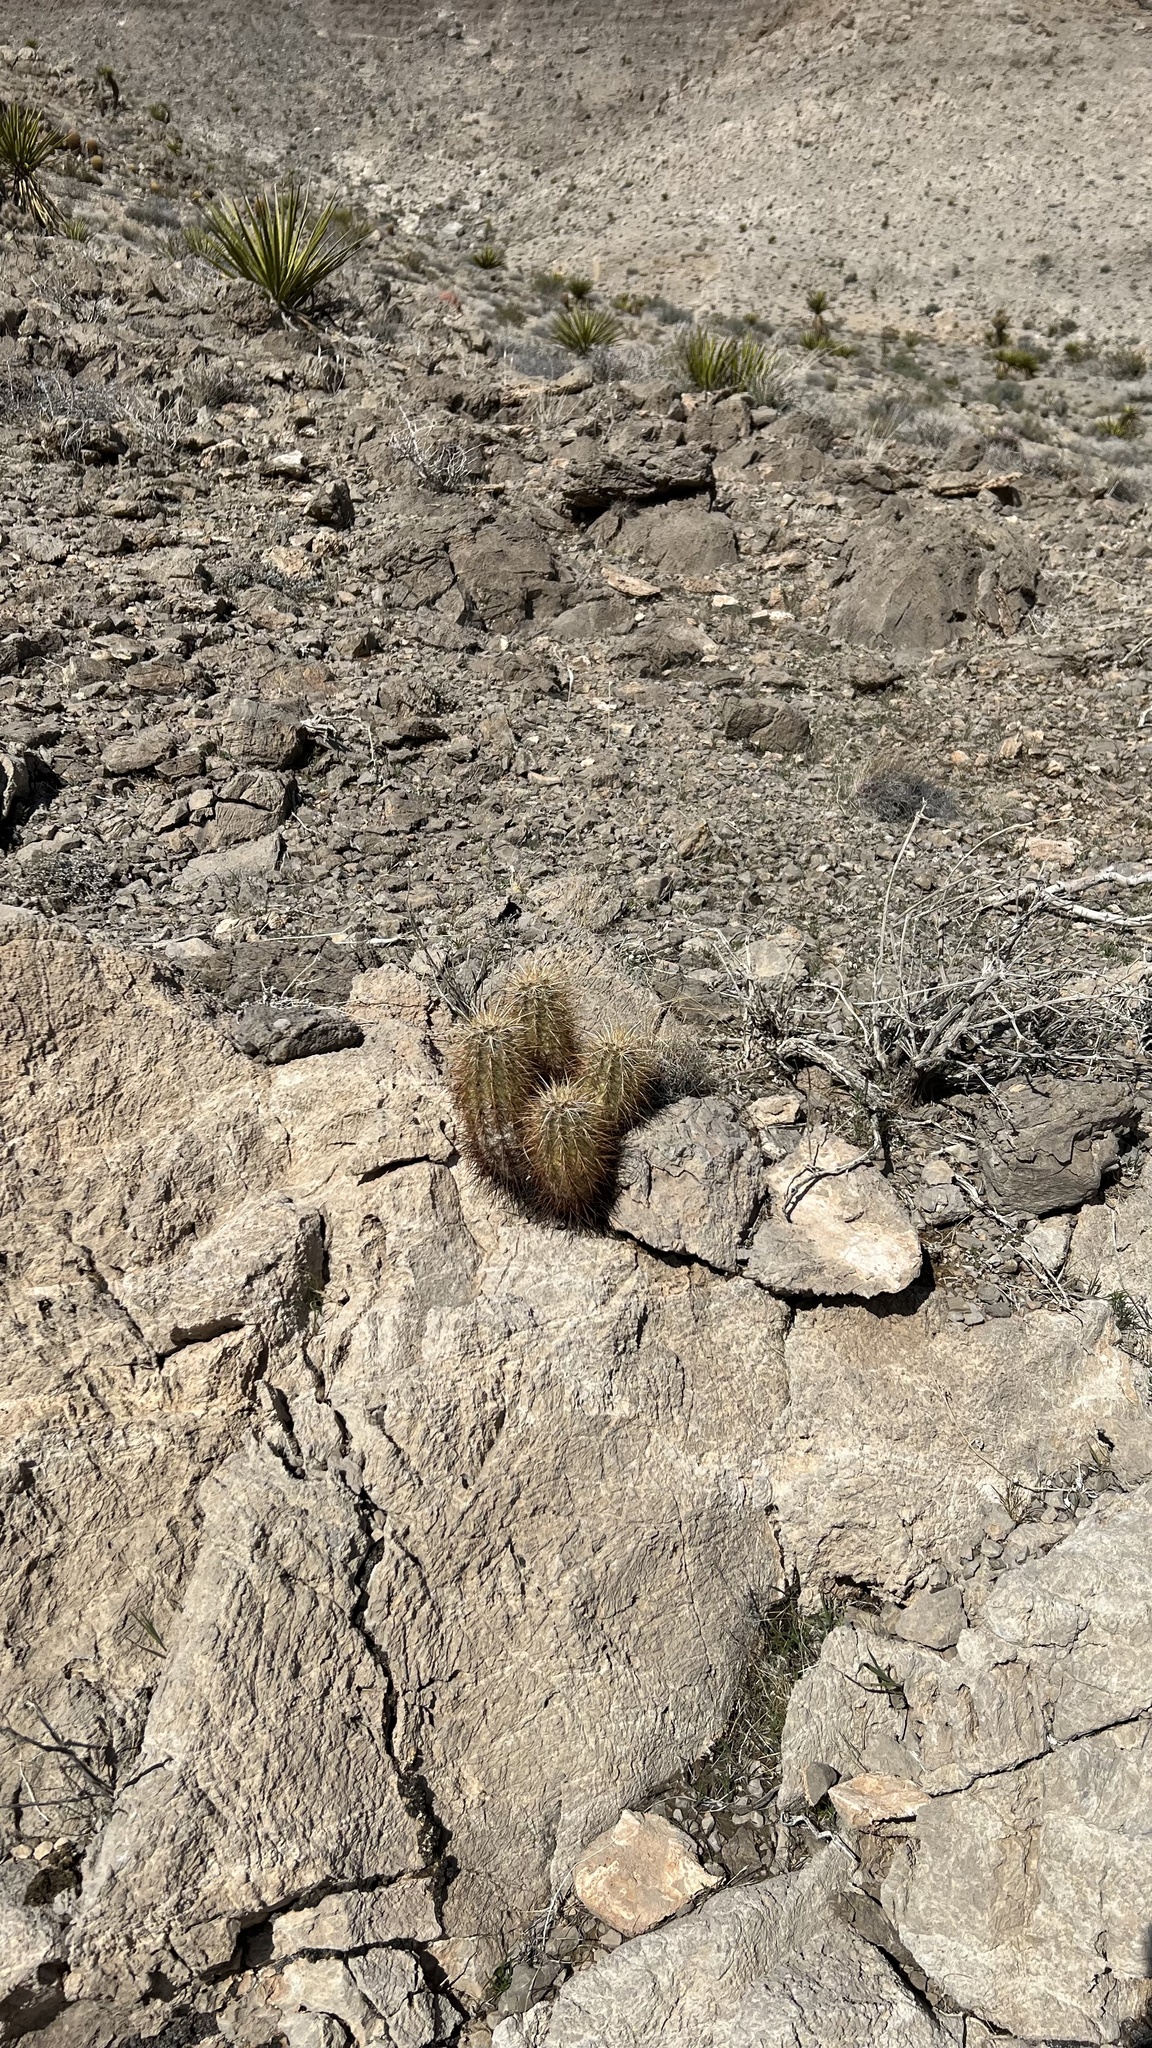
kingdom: Plantae
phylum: Tracheophyta
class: Magnoliopsida
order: Caryophyllales
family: Cactaceae
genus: Echinocereus
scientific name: Echinocereus engelmannii
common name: Engelmann's hedgehog cactus
